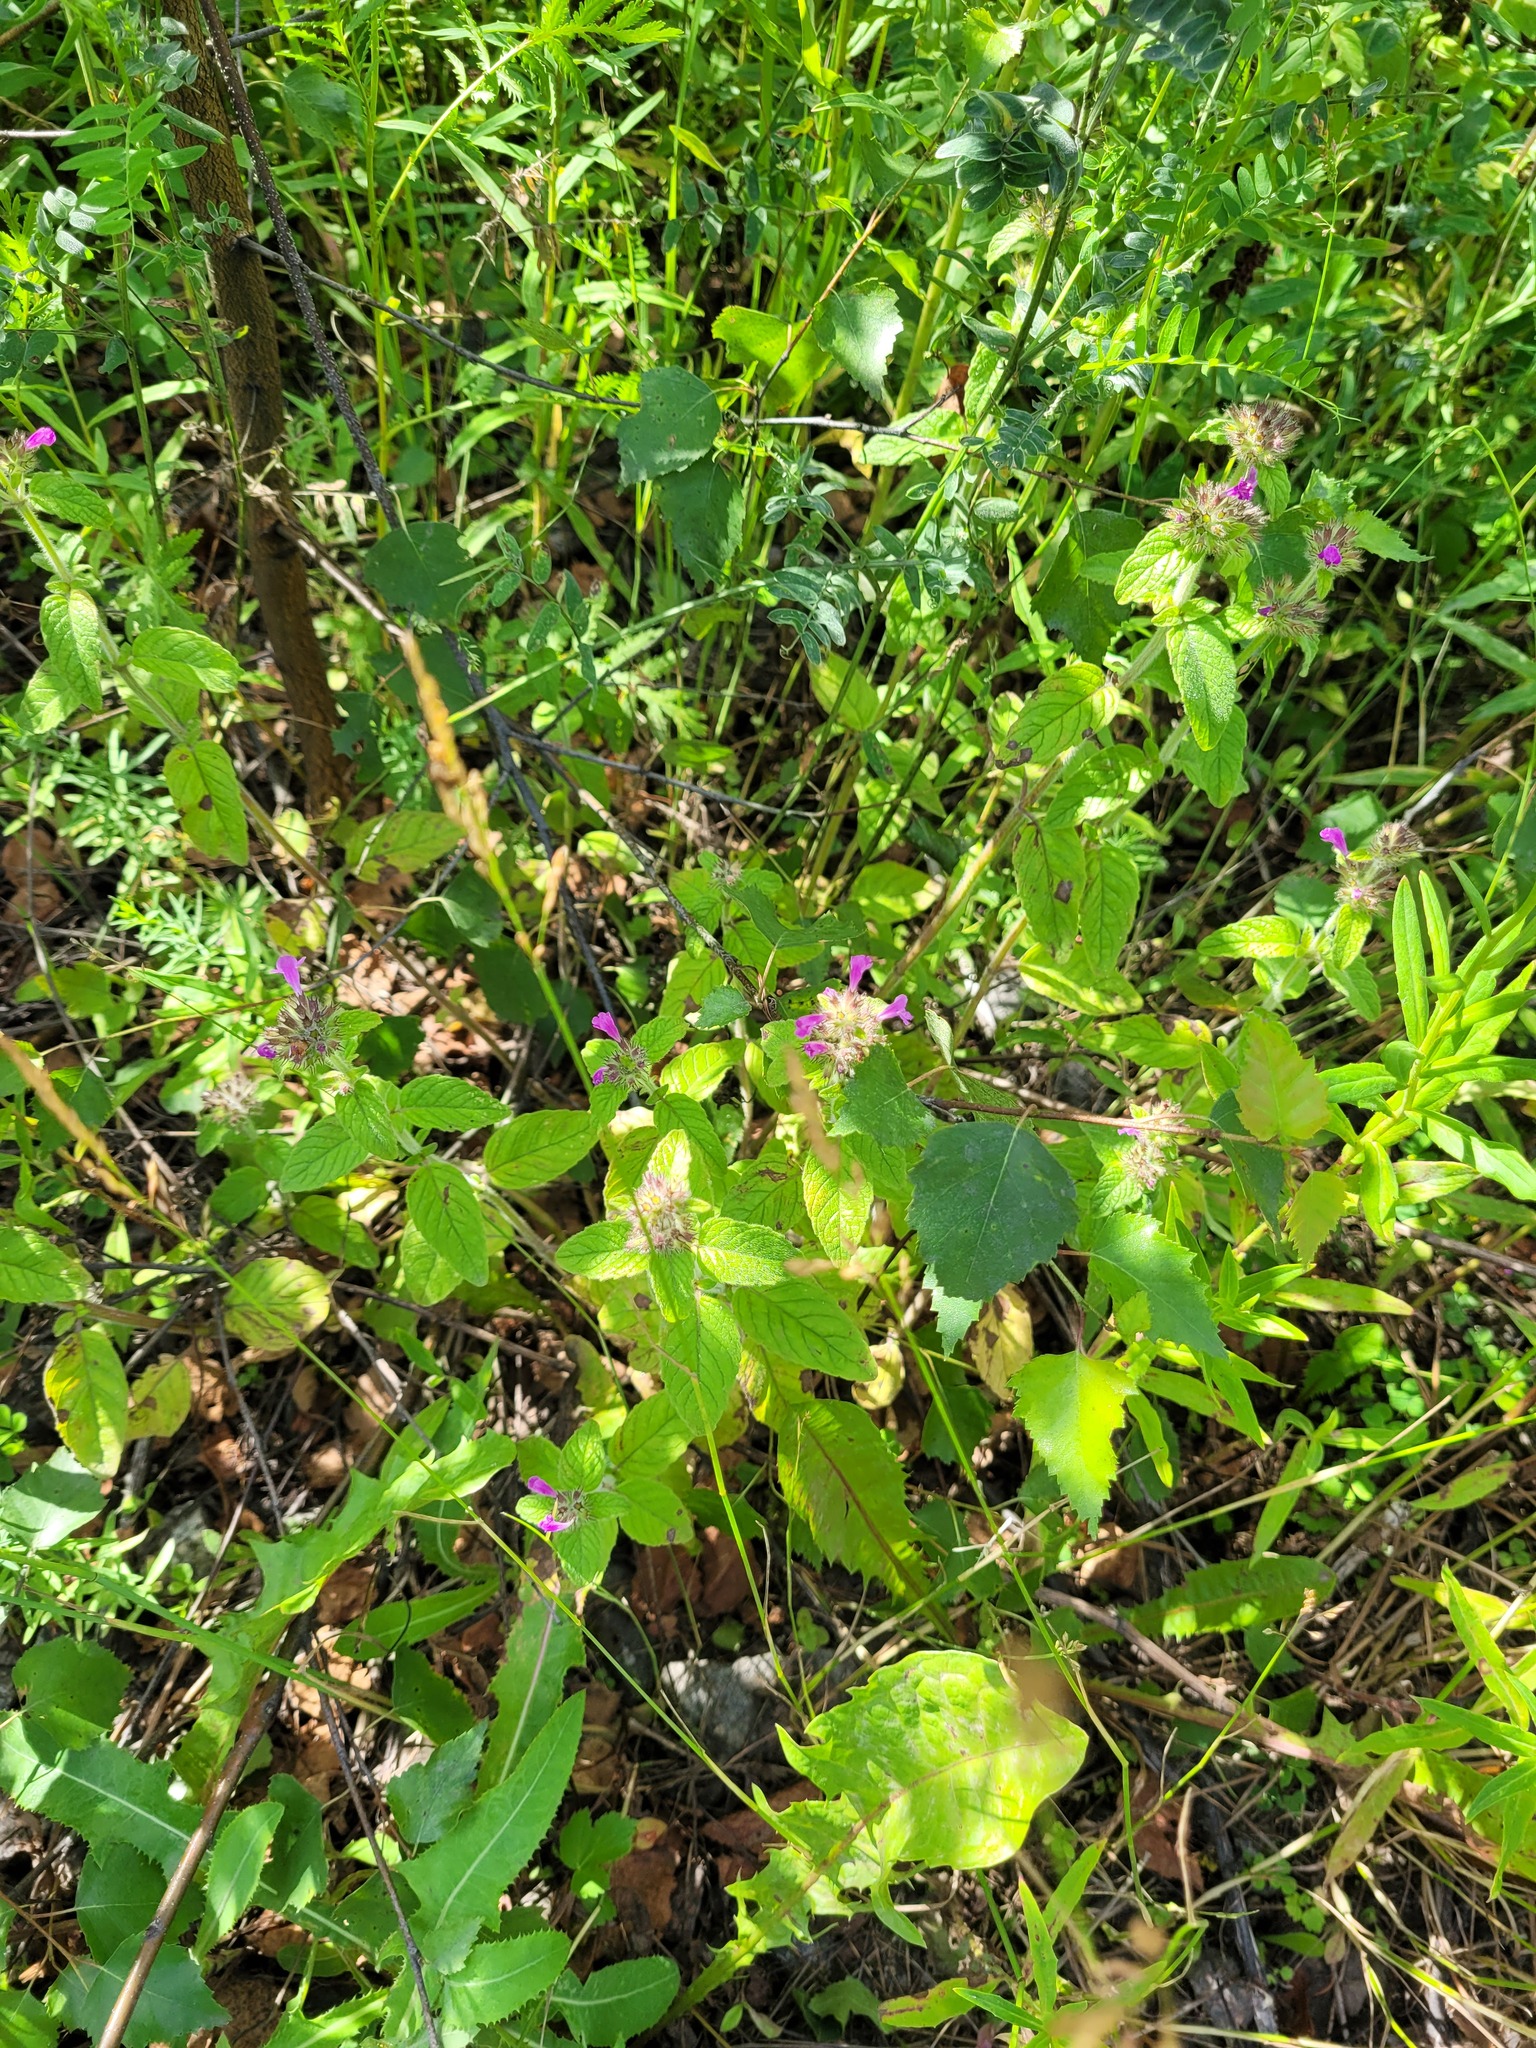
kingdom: Plantae
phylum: Tracheophyta
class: Magnoliopsida
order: Lamiales
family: Lamiaceae
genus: Clinopodium
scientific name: Clinopodium vulgare
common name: Wild basil
